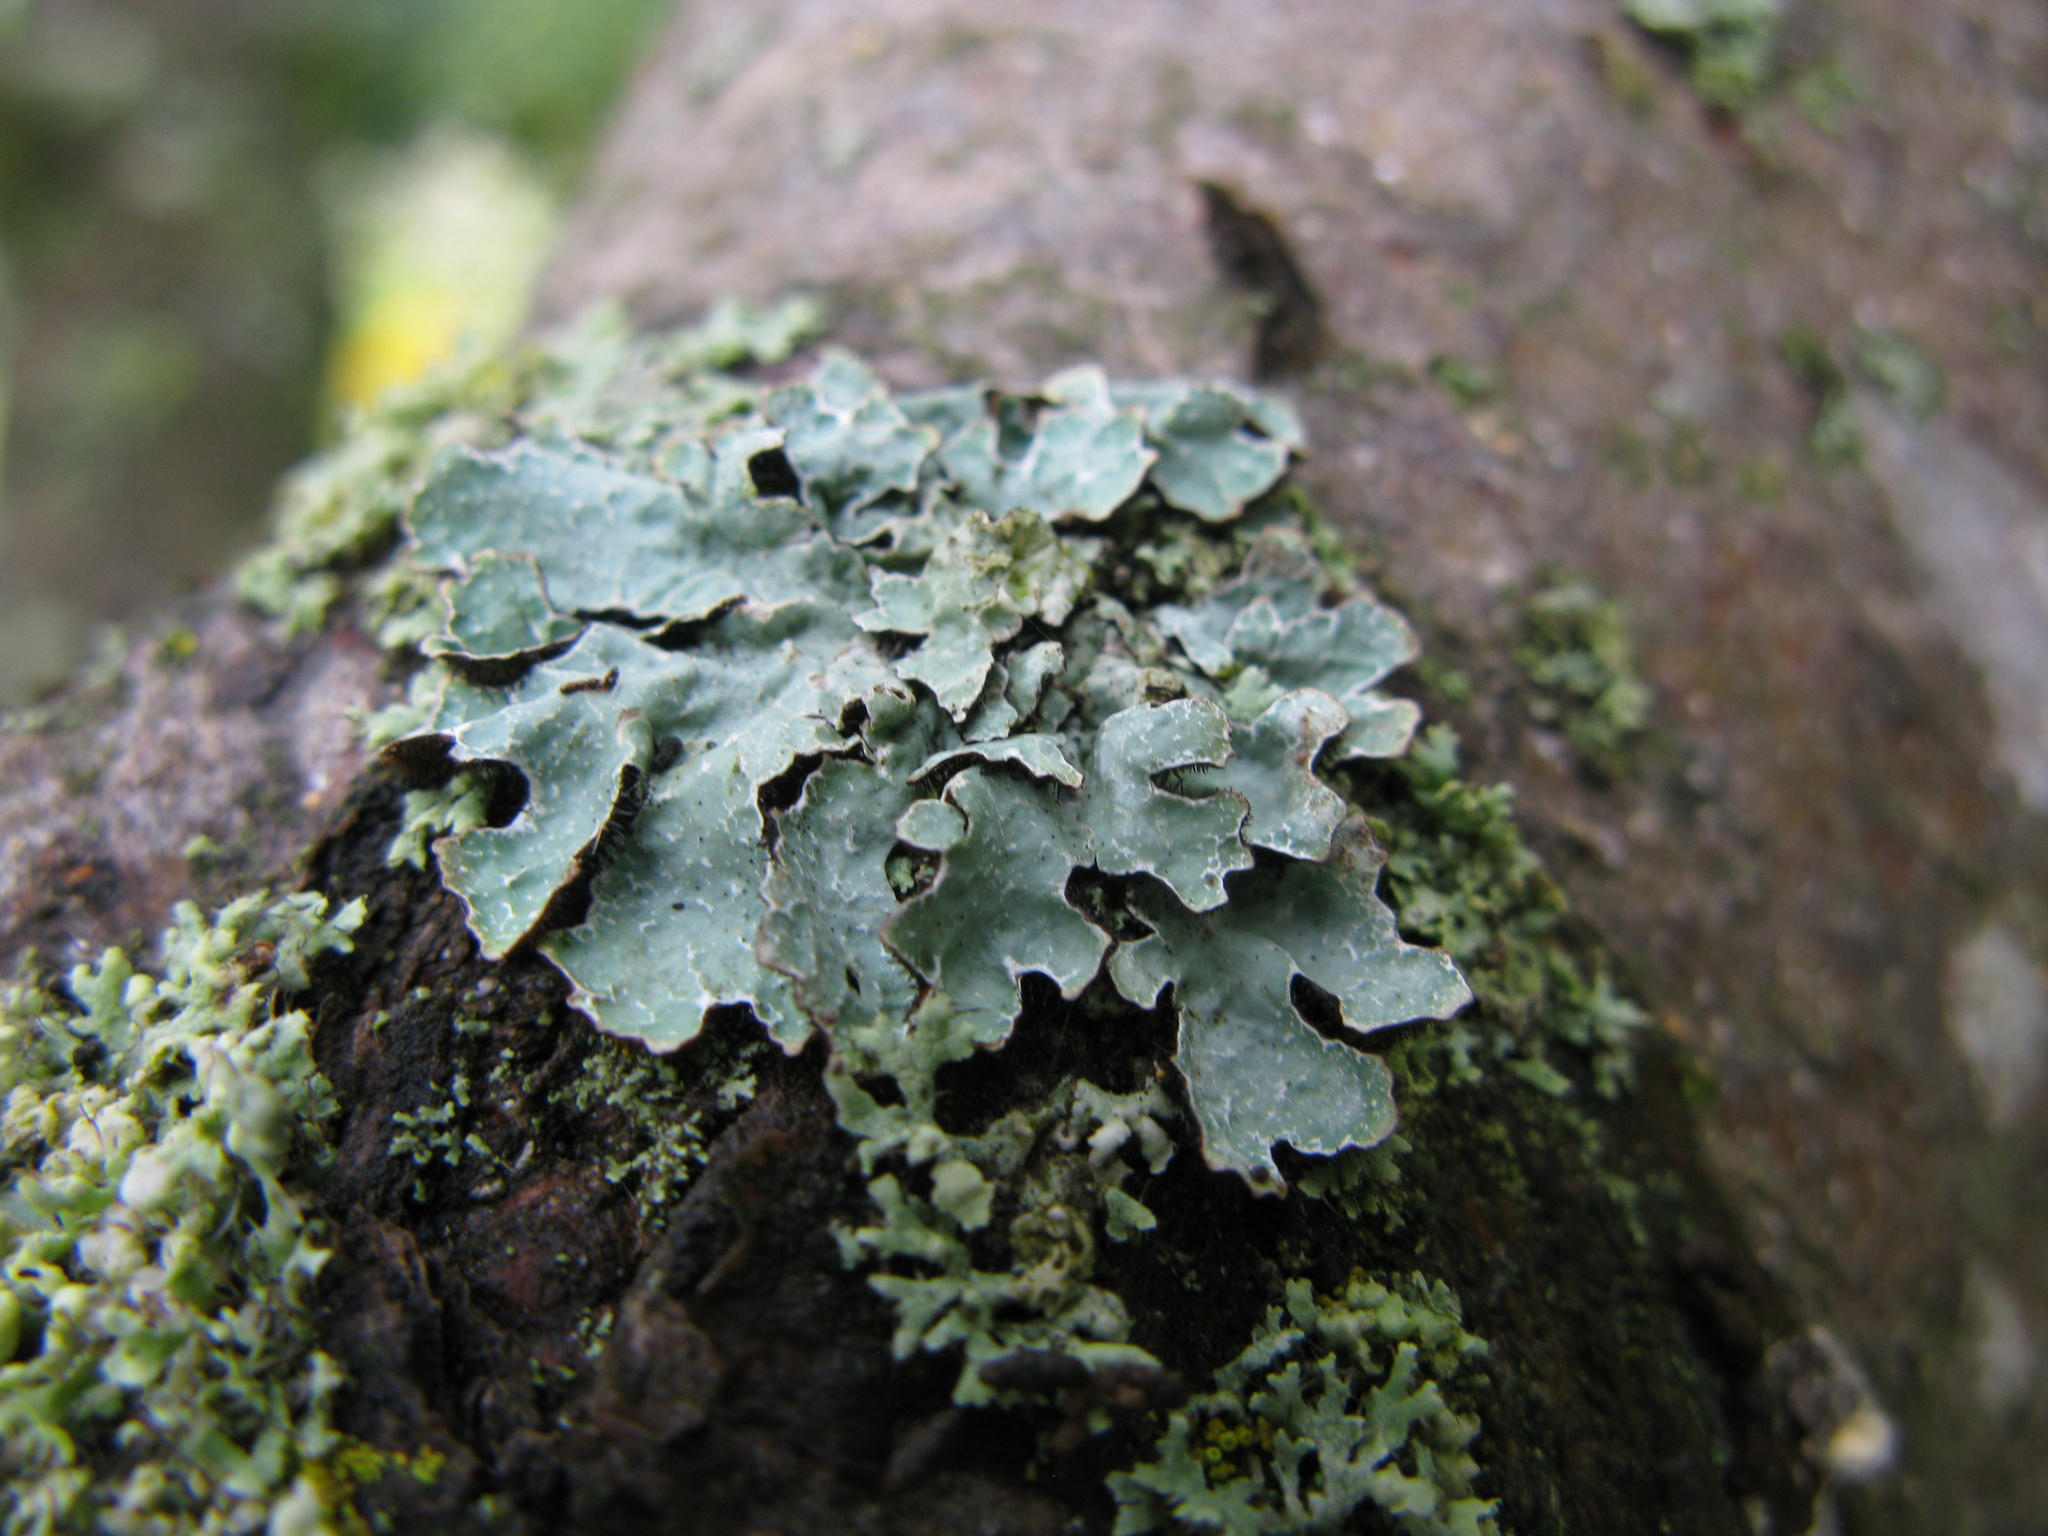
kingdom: Fungi
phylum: Ascomycota
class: Lecanoromycetes
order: Lecanorales
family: Parmeliaceae
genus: Parmelia
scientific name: Parmelia sulcata
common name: Netted shield lichen
